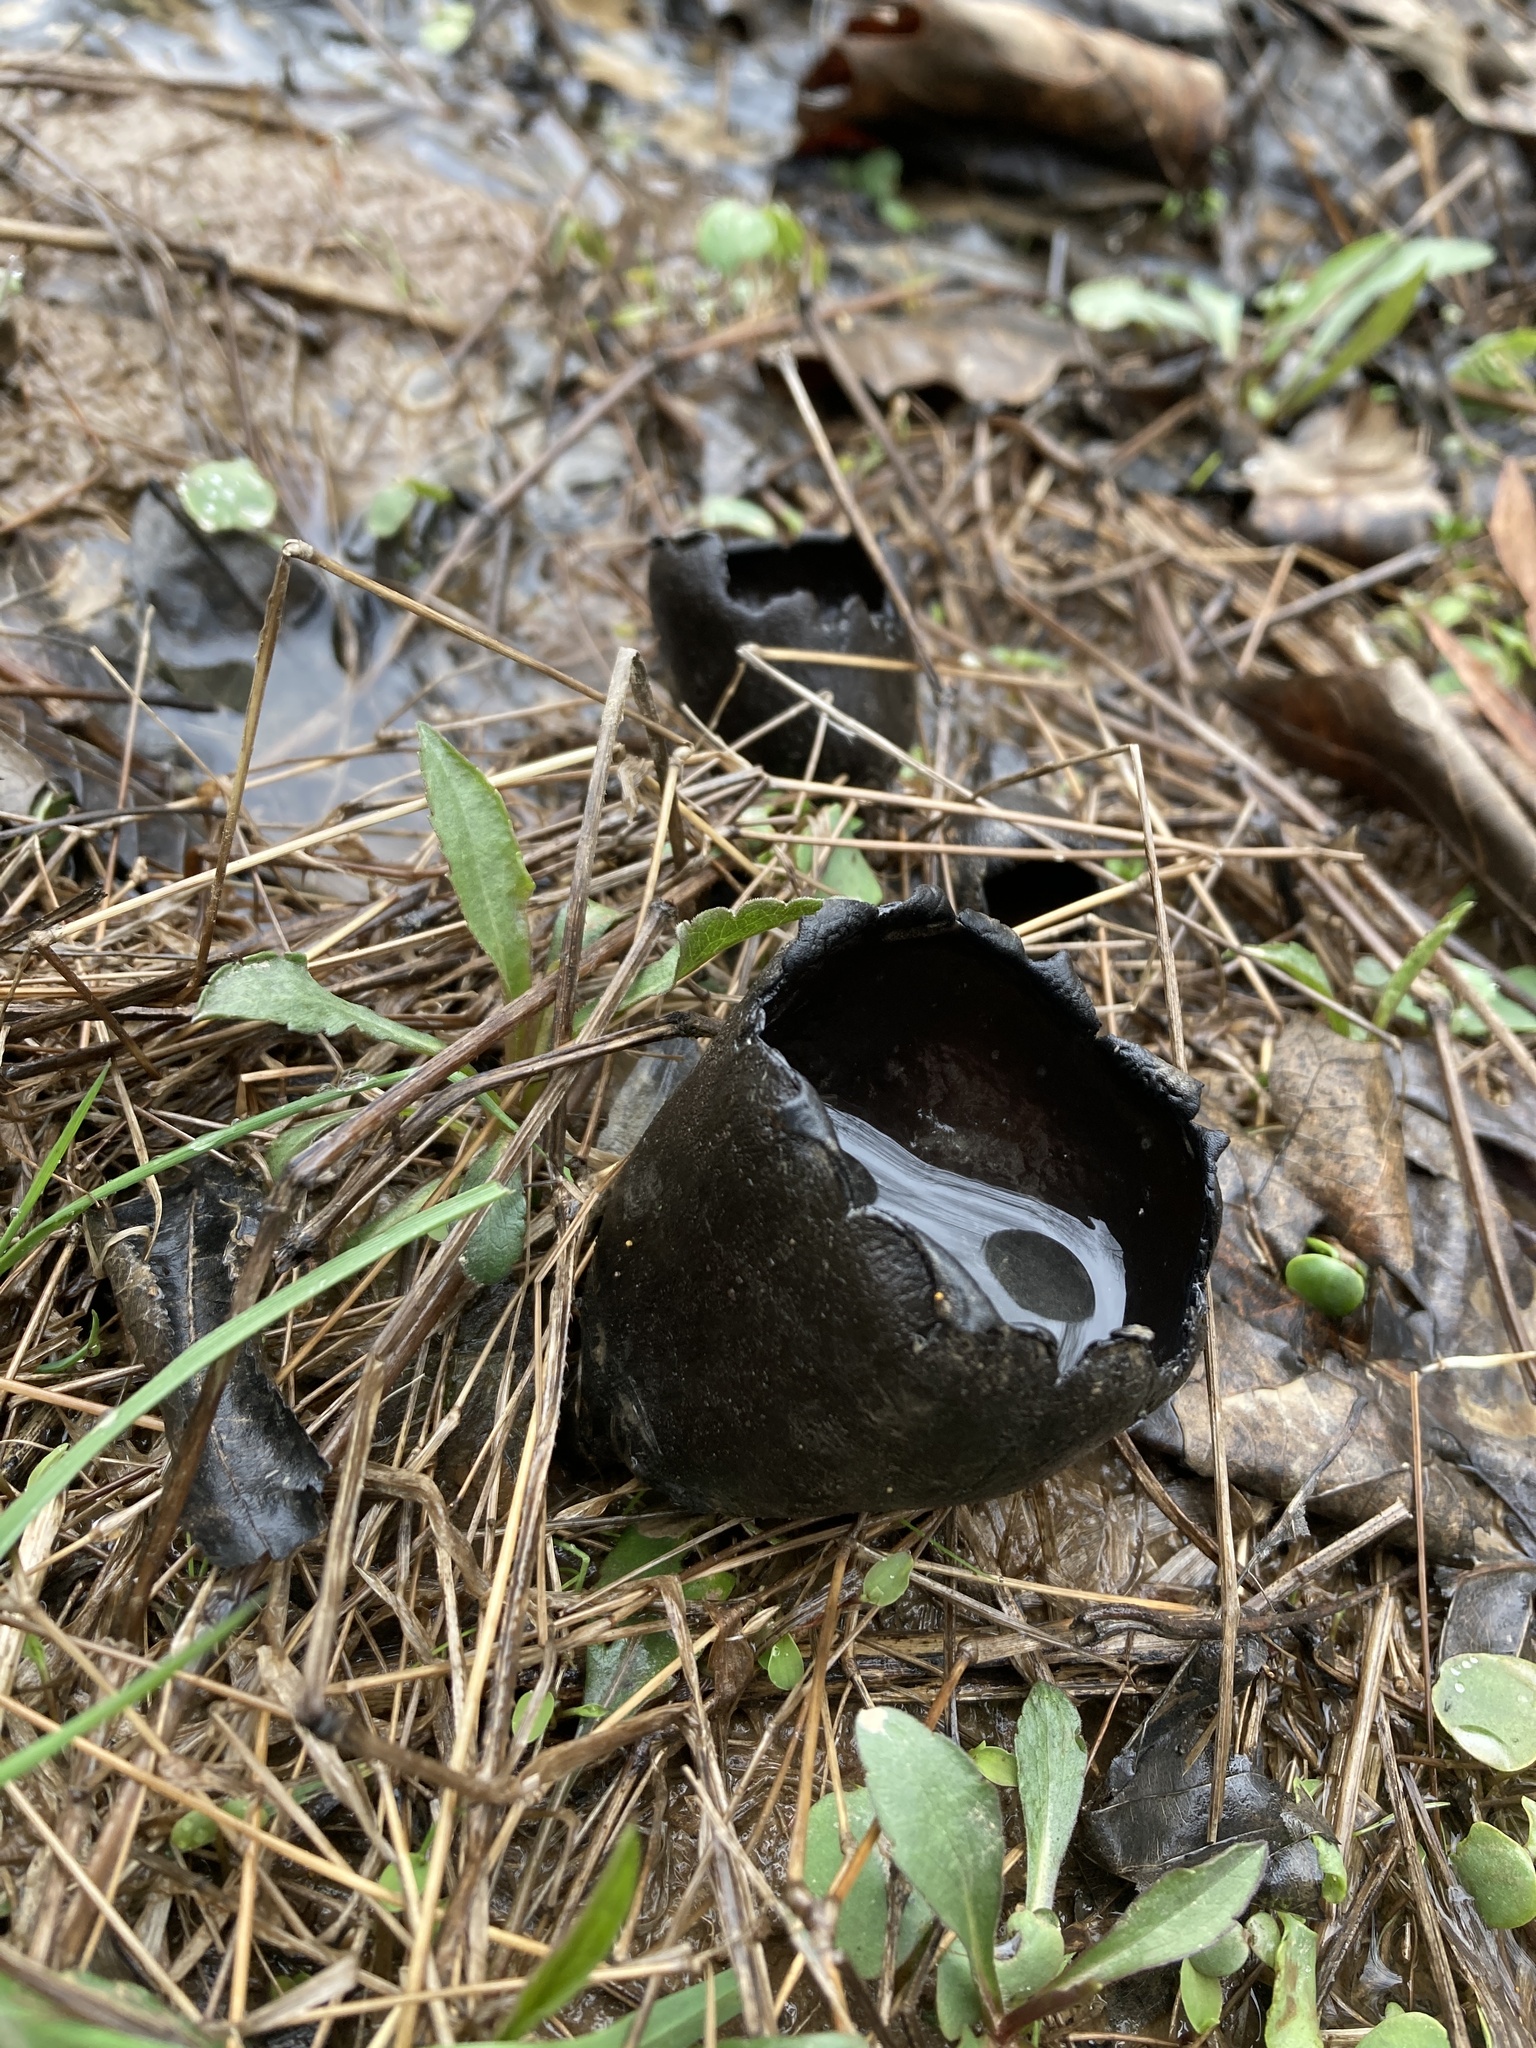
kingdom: Fungi
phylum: Ascomycota
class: Pezizomycetes
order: Pezizales
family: Sarcosomataceae
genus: Urnula
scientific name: Urnula craterium
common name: Devil's urn
